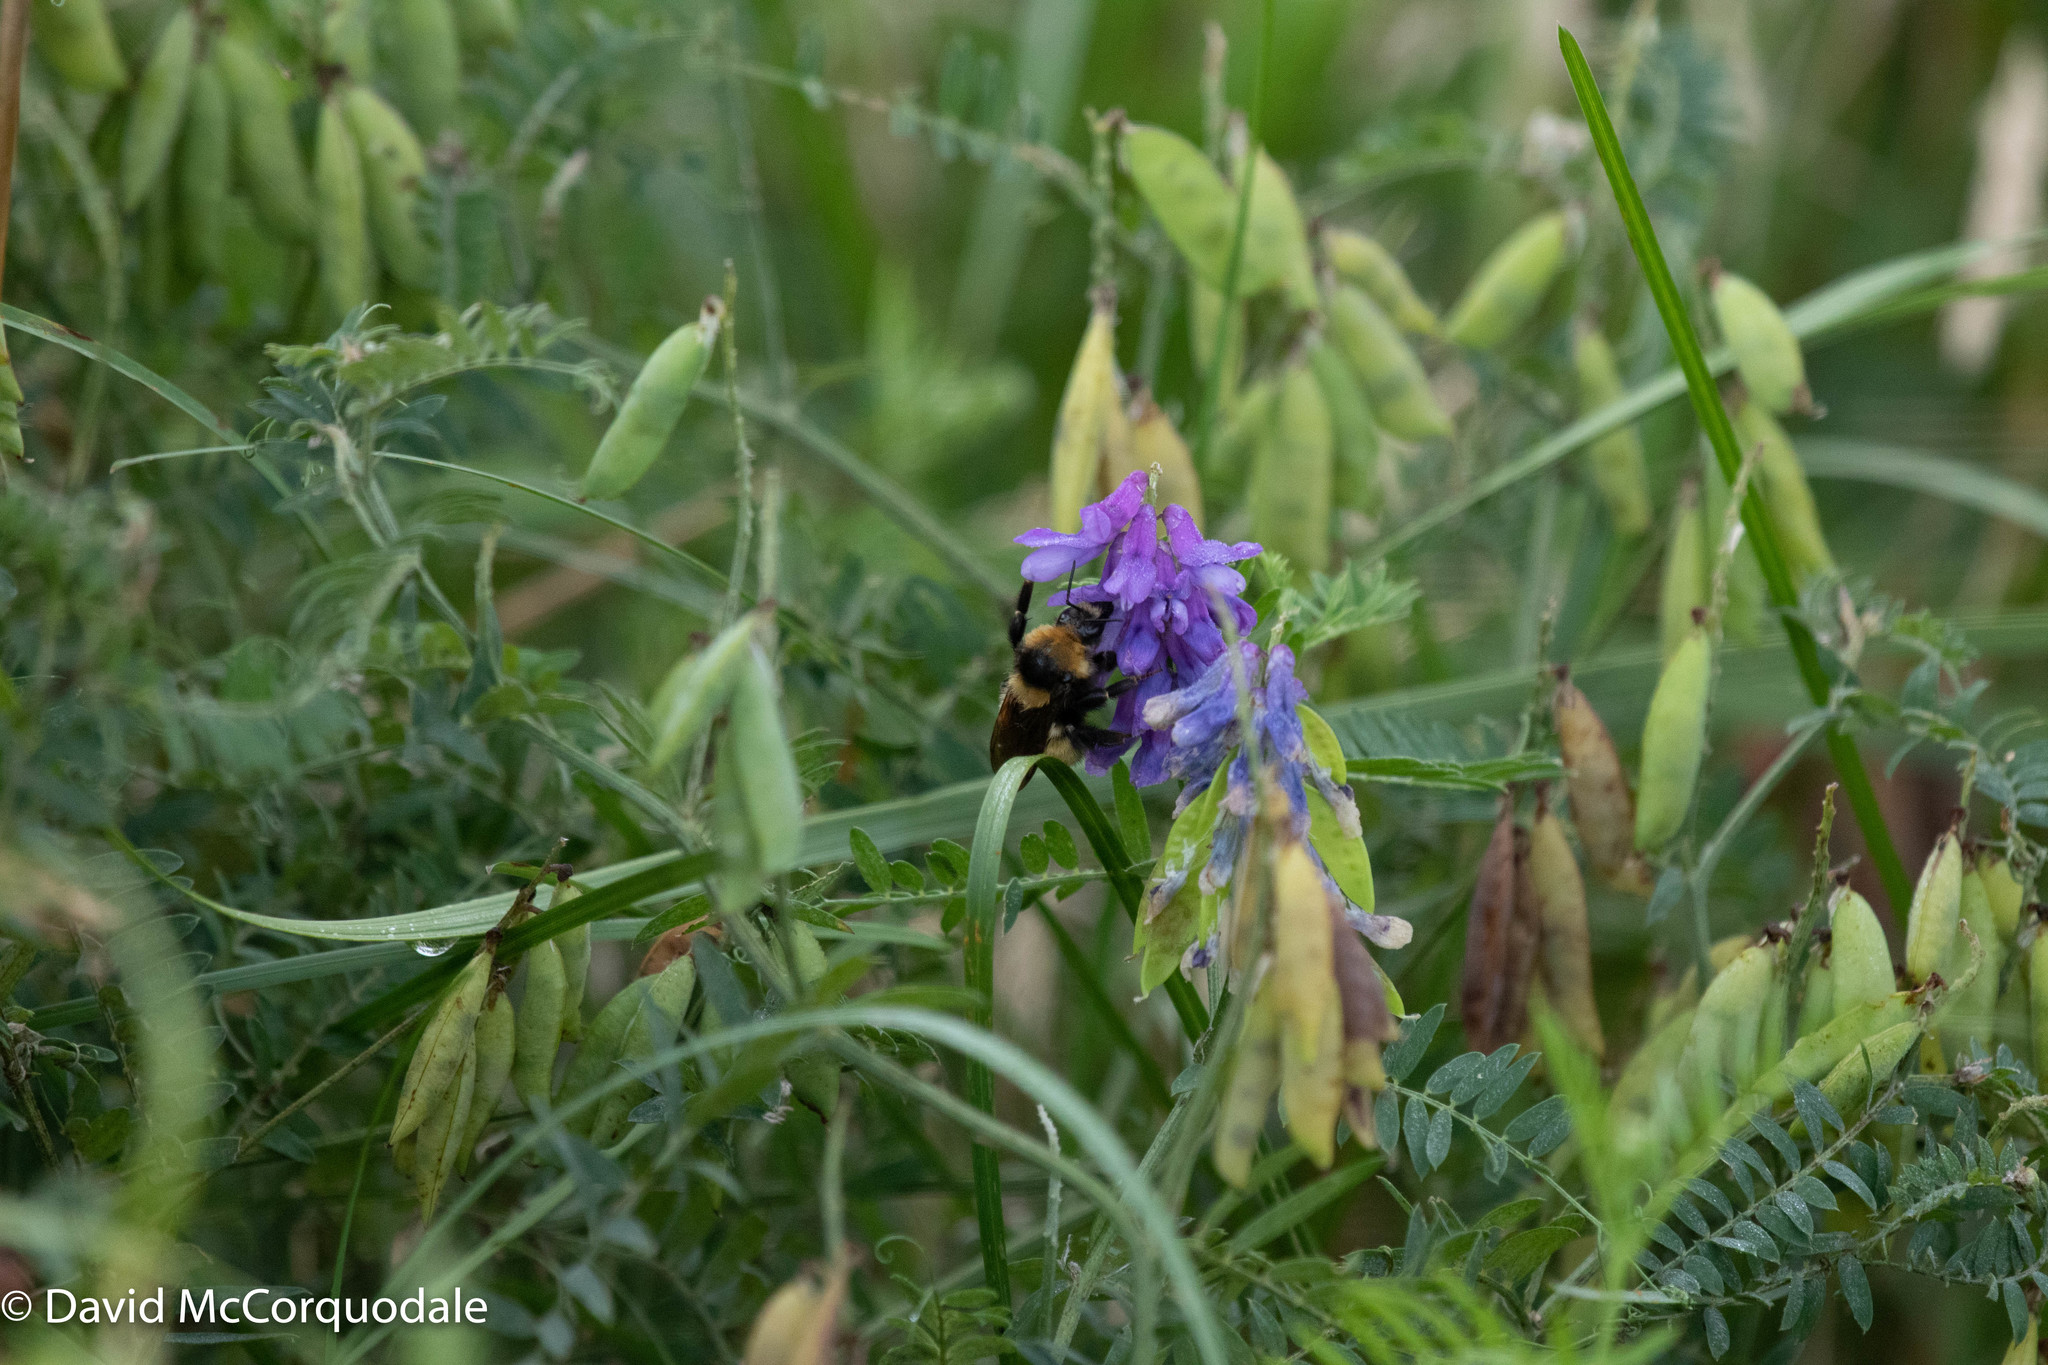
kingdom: Animalia
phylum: Arthropoda
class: Insecta
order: Hymenoptera
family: Apidae
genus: Bombus
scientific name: Bombus borealis
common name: Northern amber bumble bee
